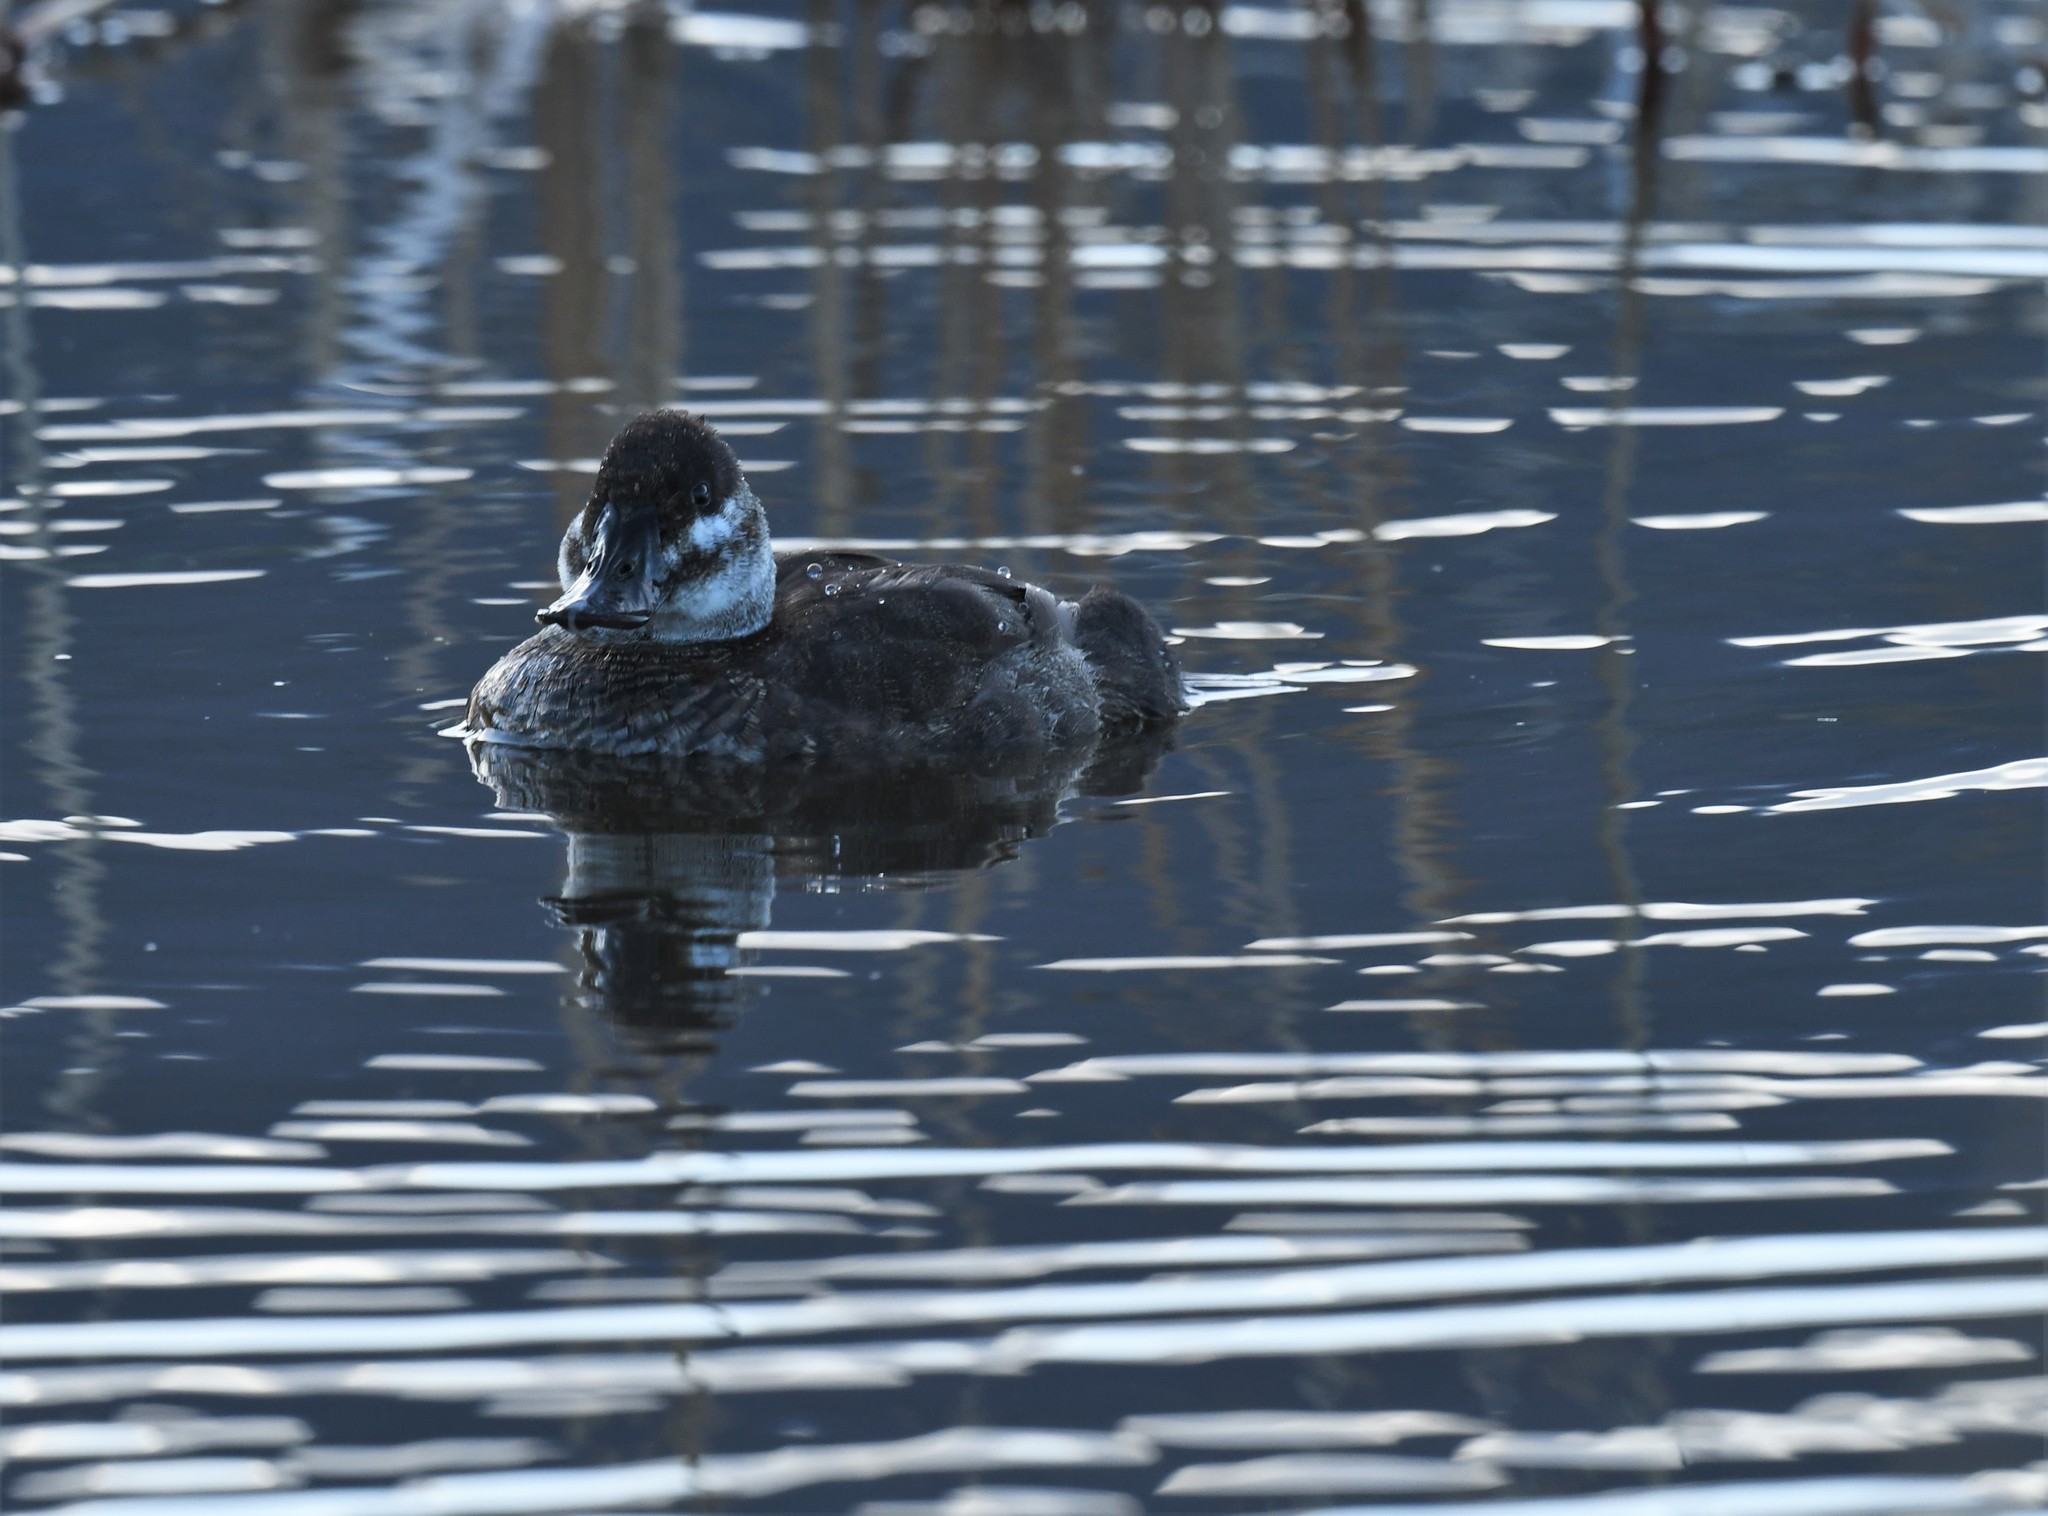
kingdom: Animalia
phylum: Chordata
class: Aves
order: Anseriformes
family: Anatidae
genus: Oxyura
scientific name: Oxyura jamaicensis
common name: Ruddy duck
